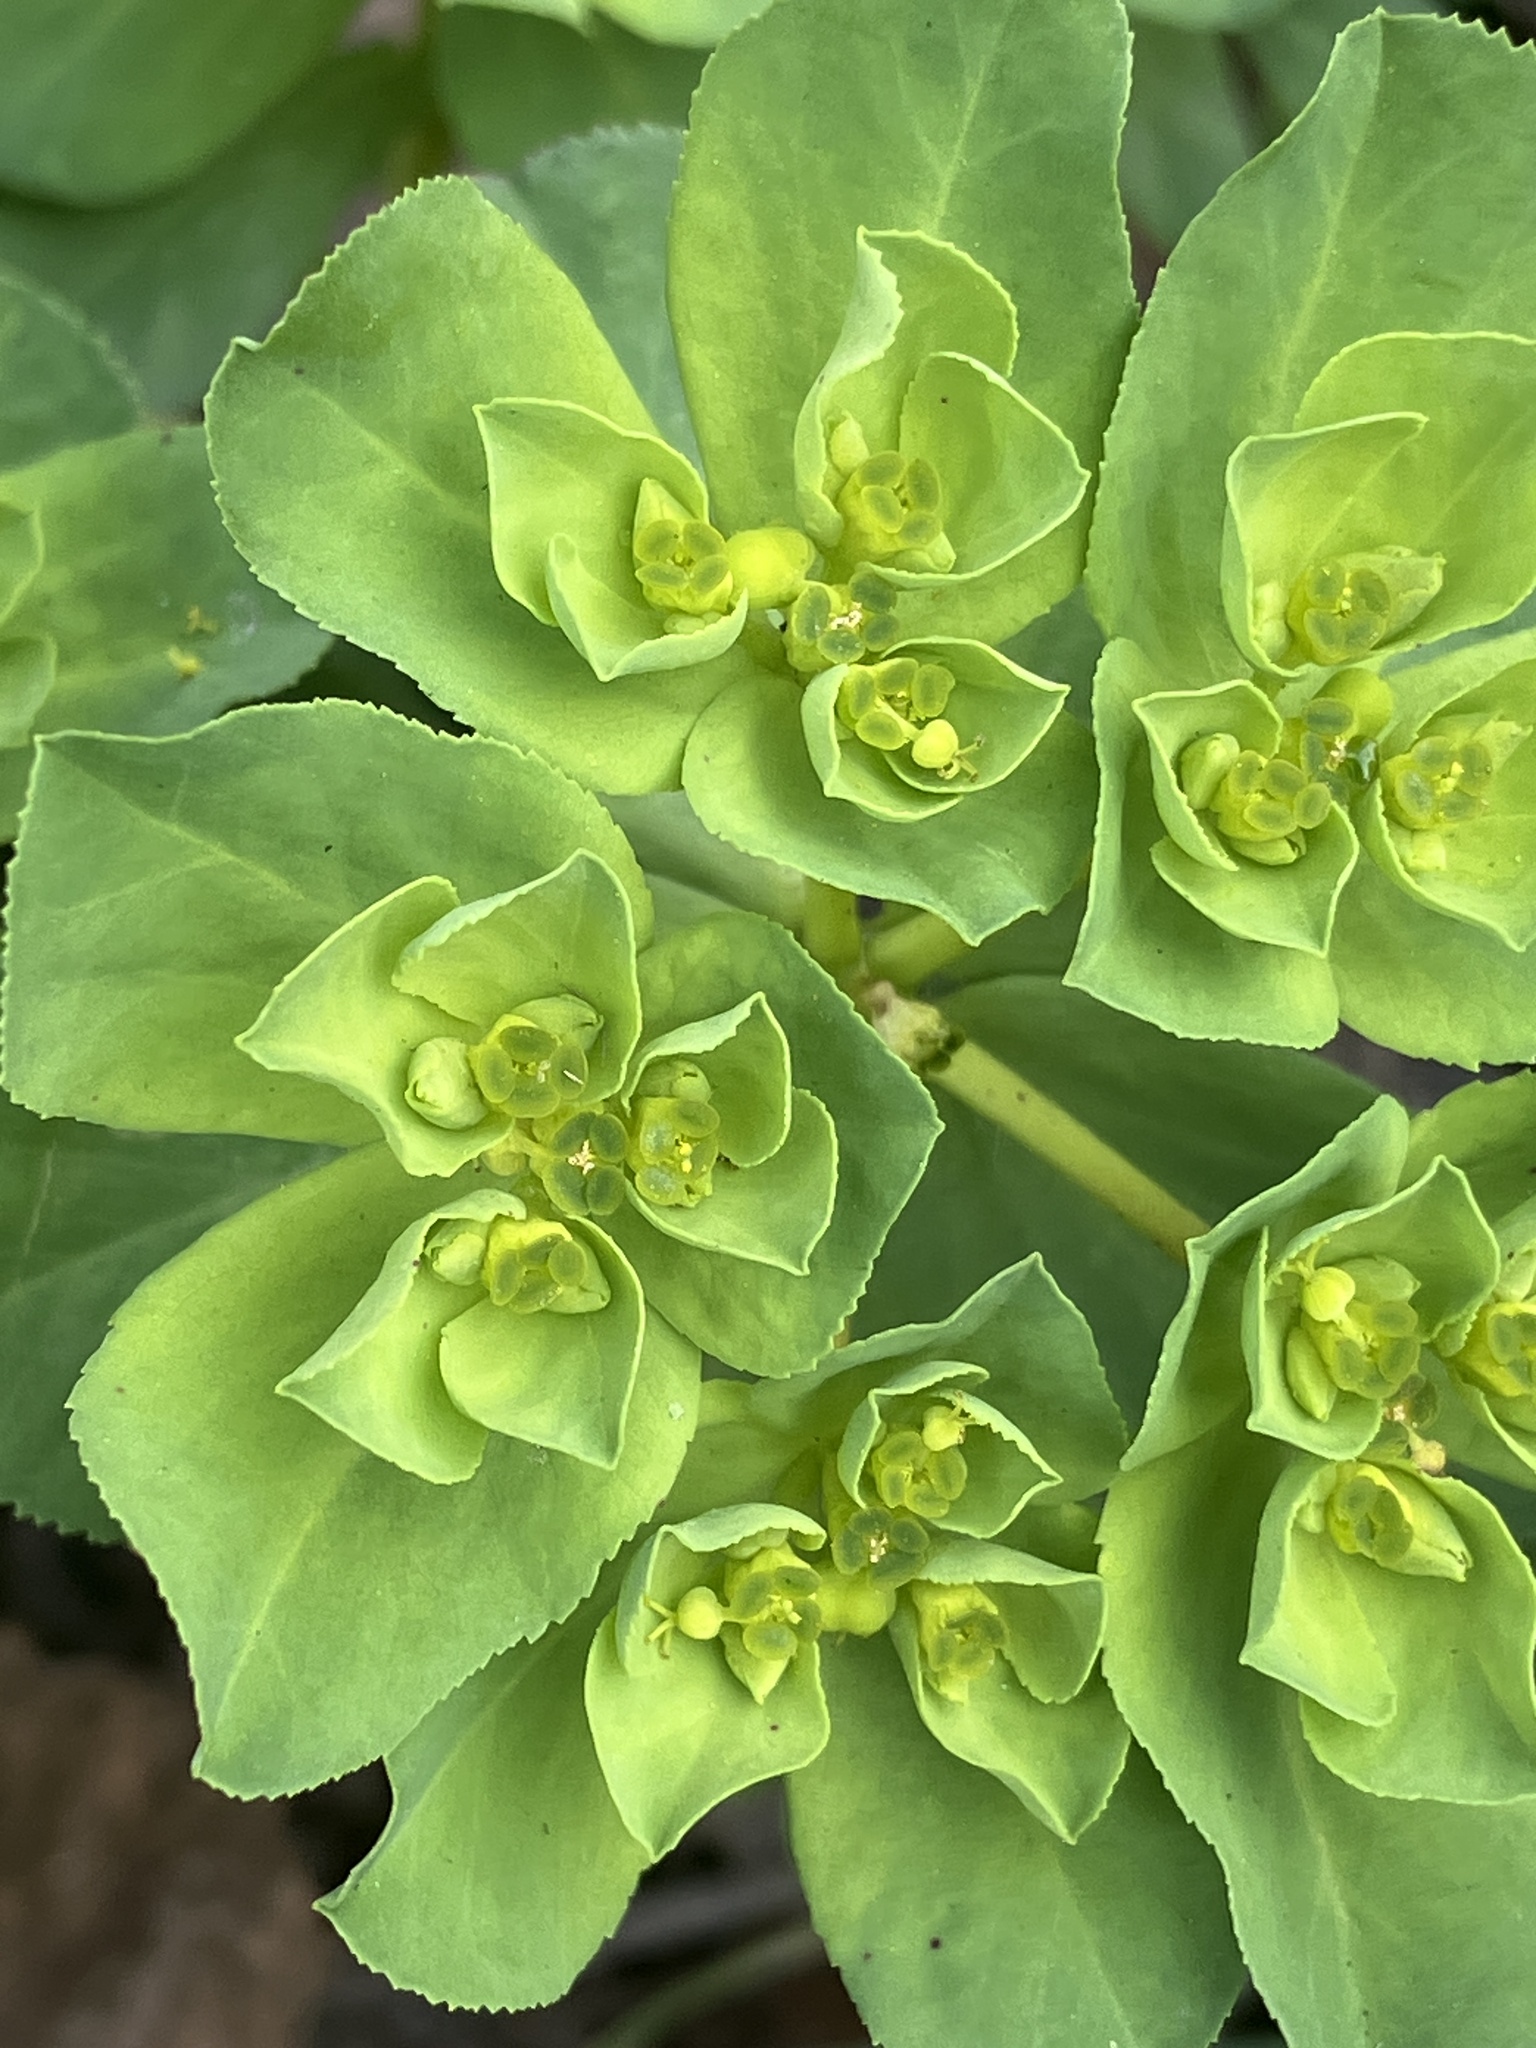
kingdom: Plantae
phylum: Tracheophyta
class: Magnoliopsida
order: Malpighiales
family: Euphorbiaceae
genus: Euphorbia
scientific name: Euphorbia helioscopia
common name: Sun spurge
